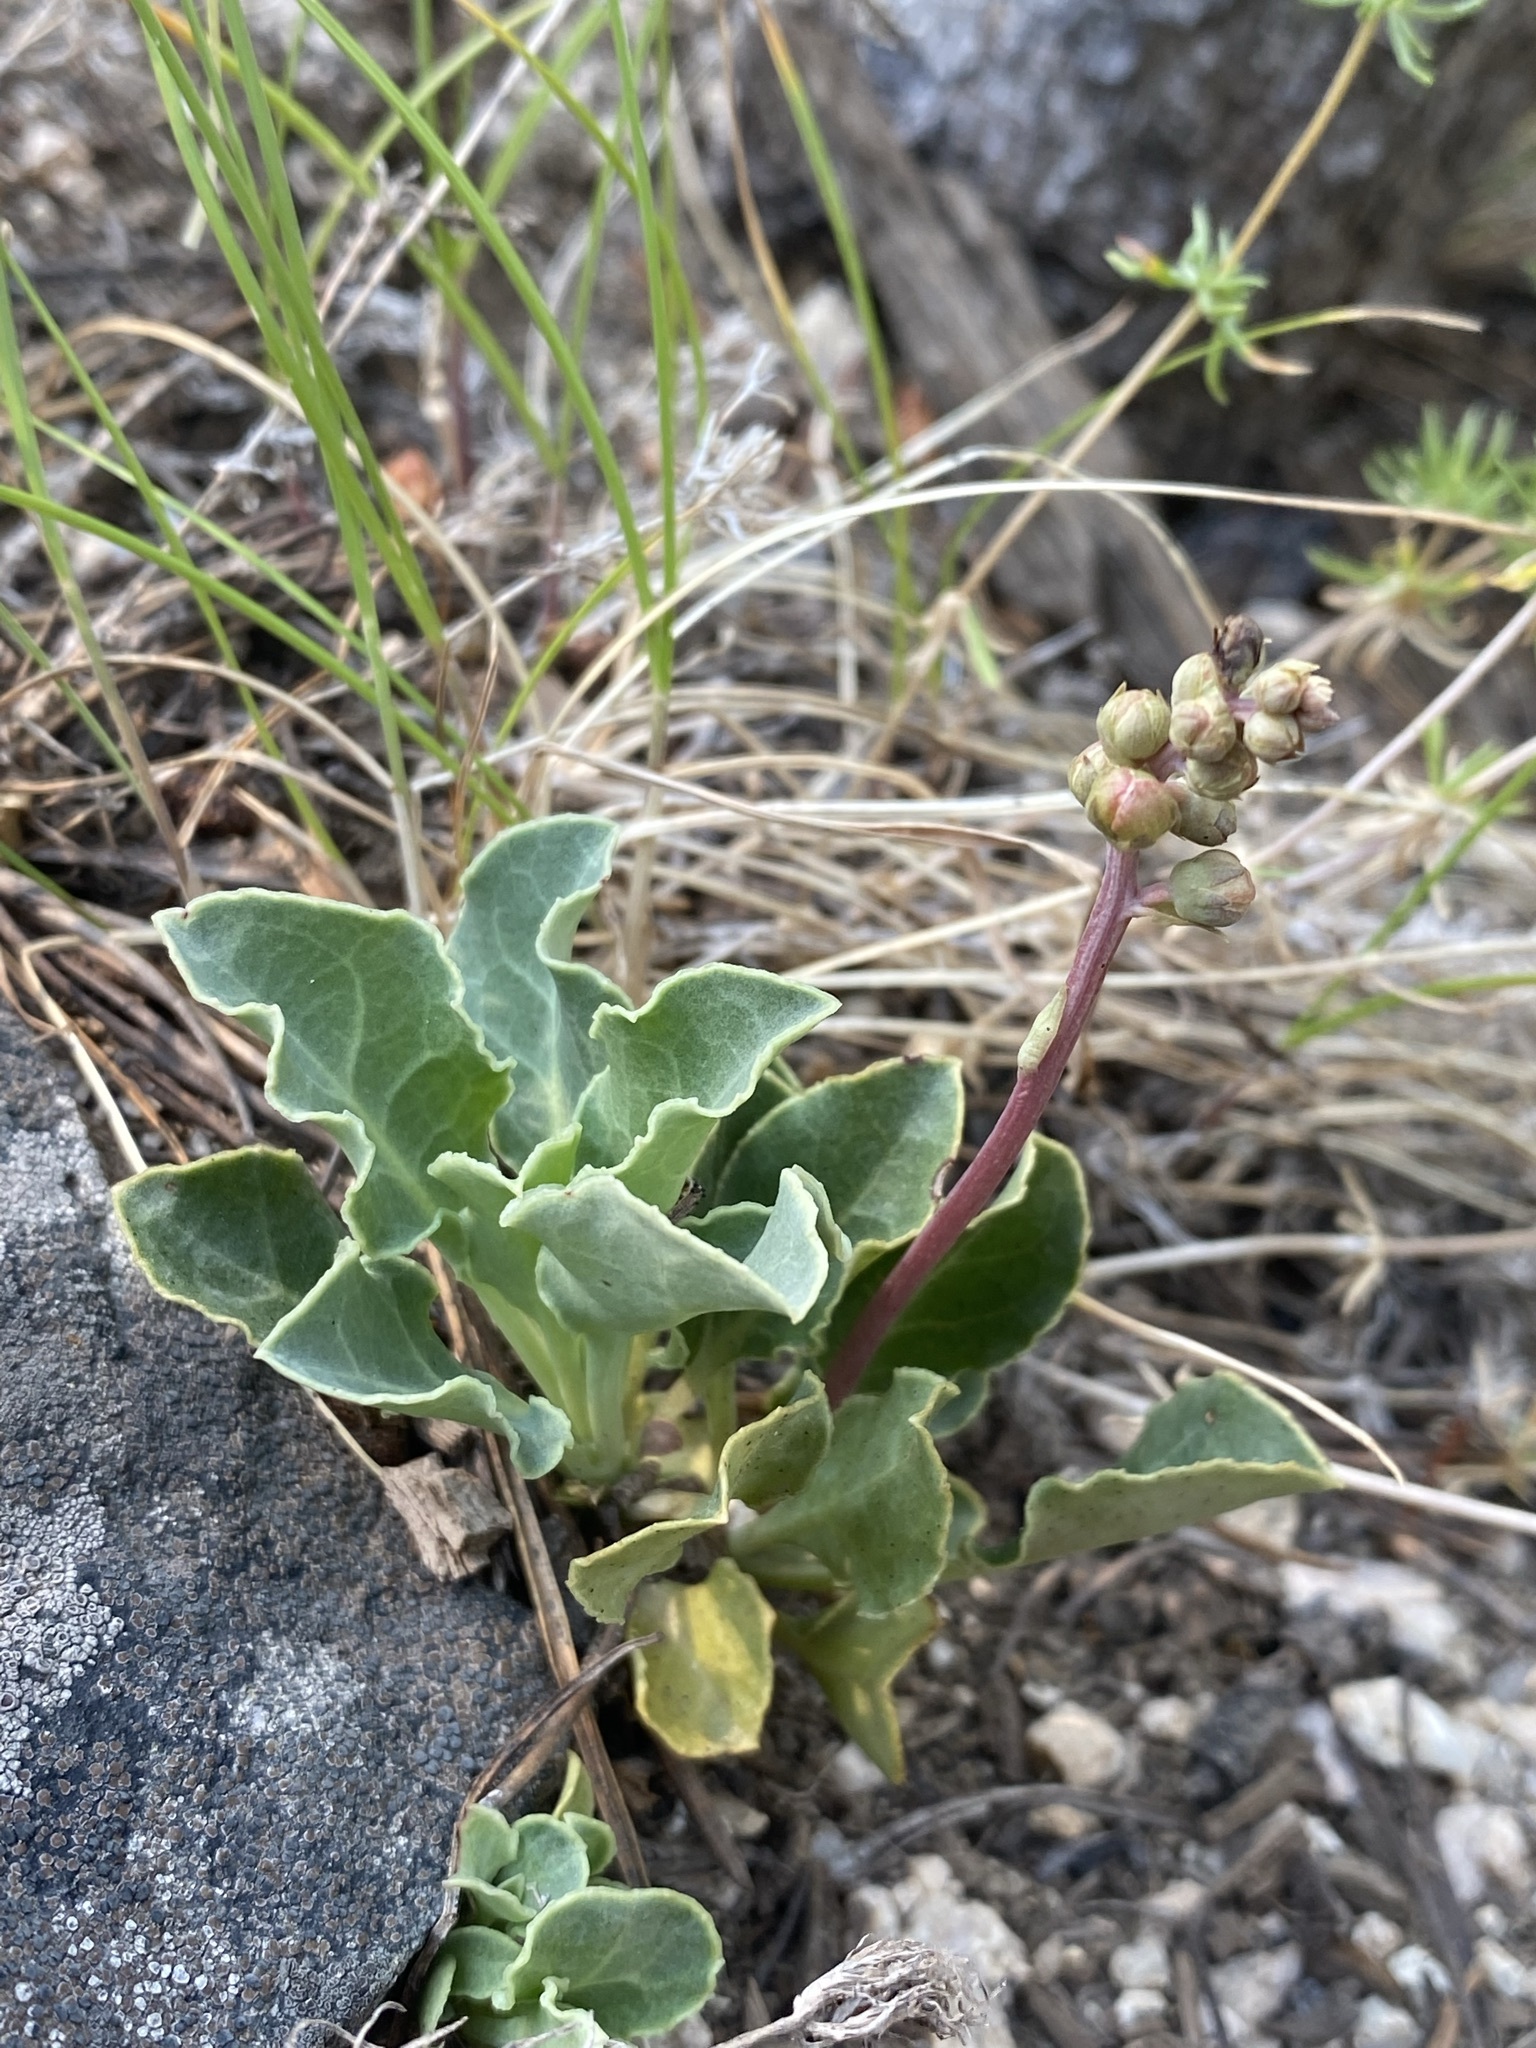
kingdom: Plantae
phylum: Tracheophyta
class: Magnoliopsida
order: Ericales
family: Ericaceae
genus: Pyrola
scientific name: Pyrola dentata
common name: Tooth-leaved wintergreen
